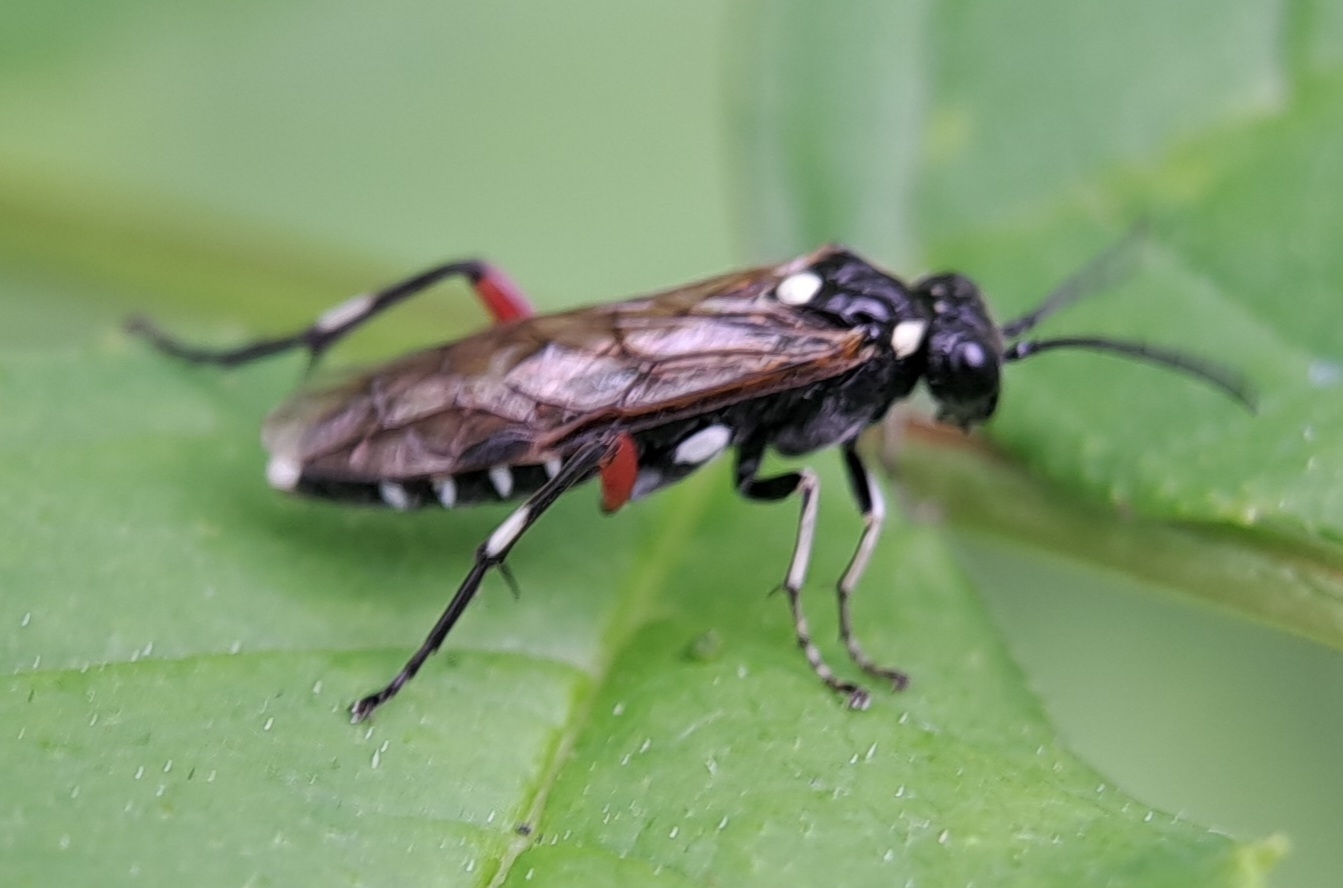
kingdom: Animalia
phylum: Arthropoda
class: Insecta
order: Hymenoptera
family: Tenthredinidae
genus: Macrophya
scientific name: Macrophya punctumalbum
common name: Sawfly
